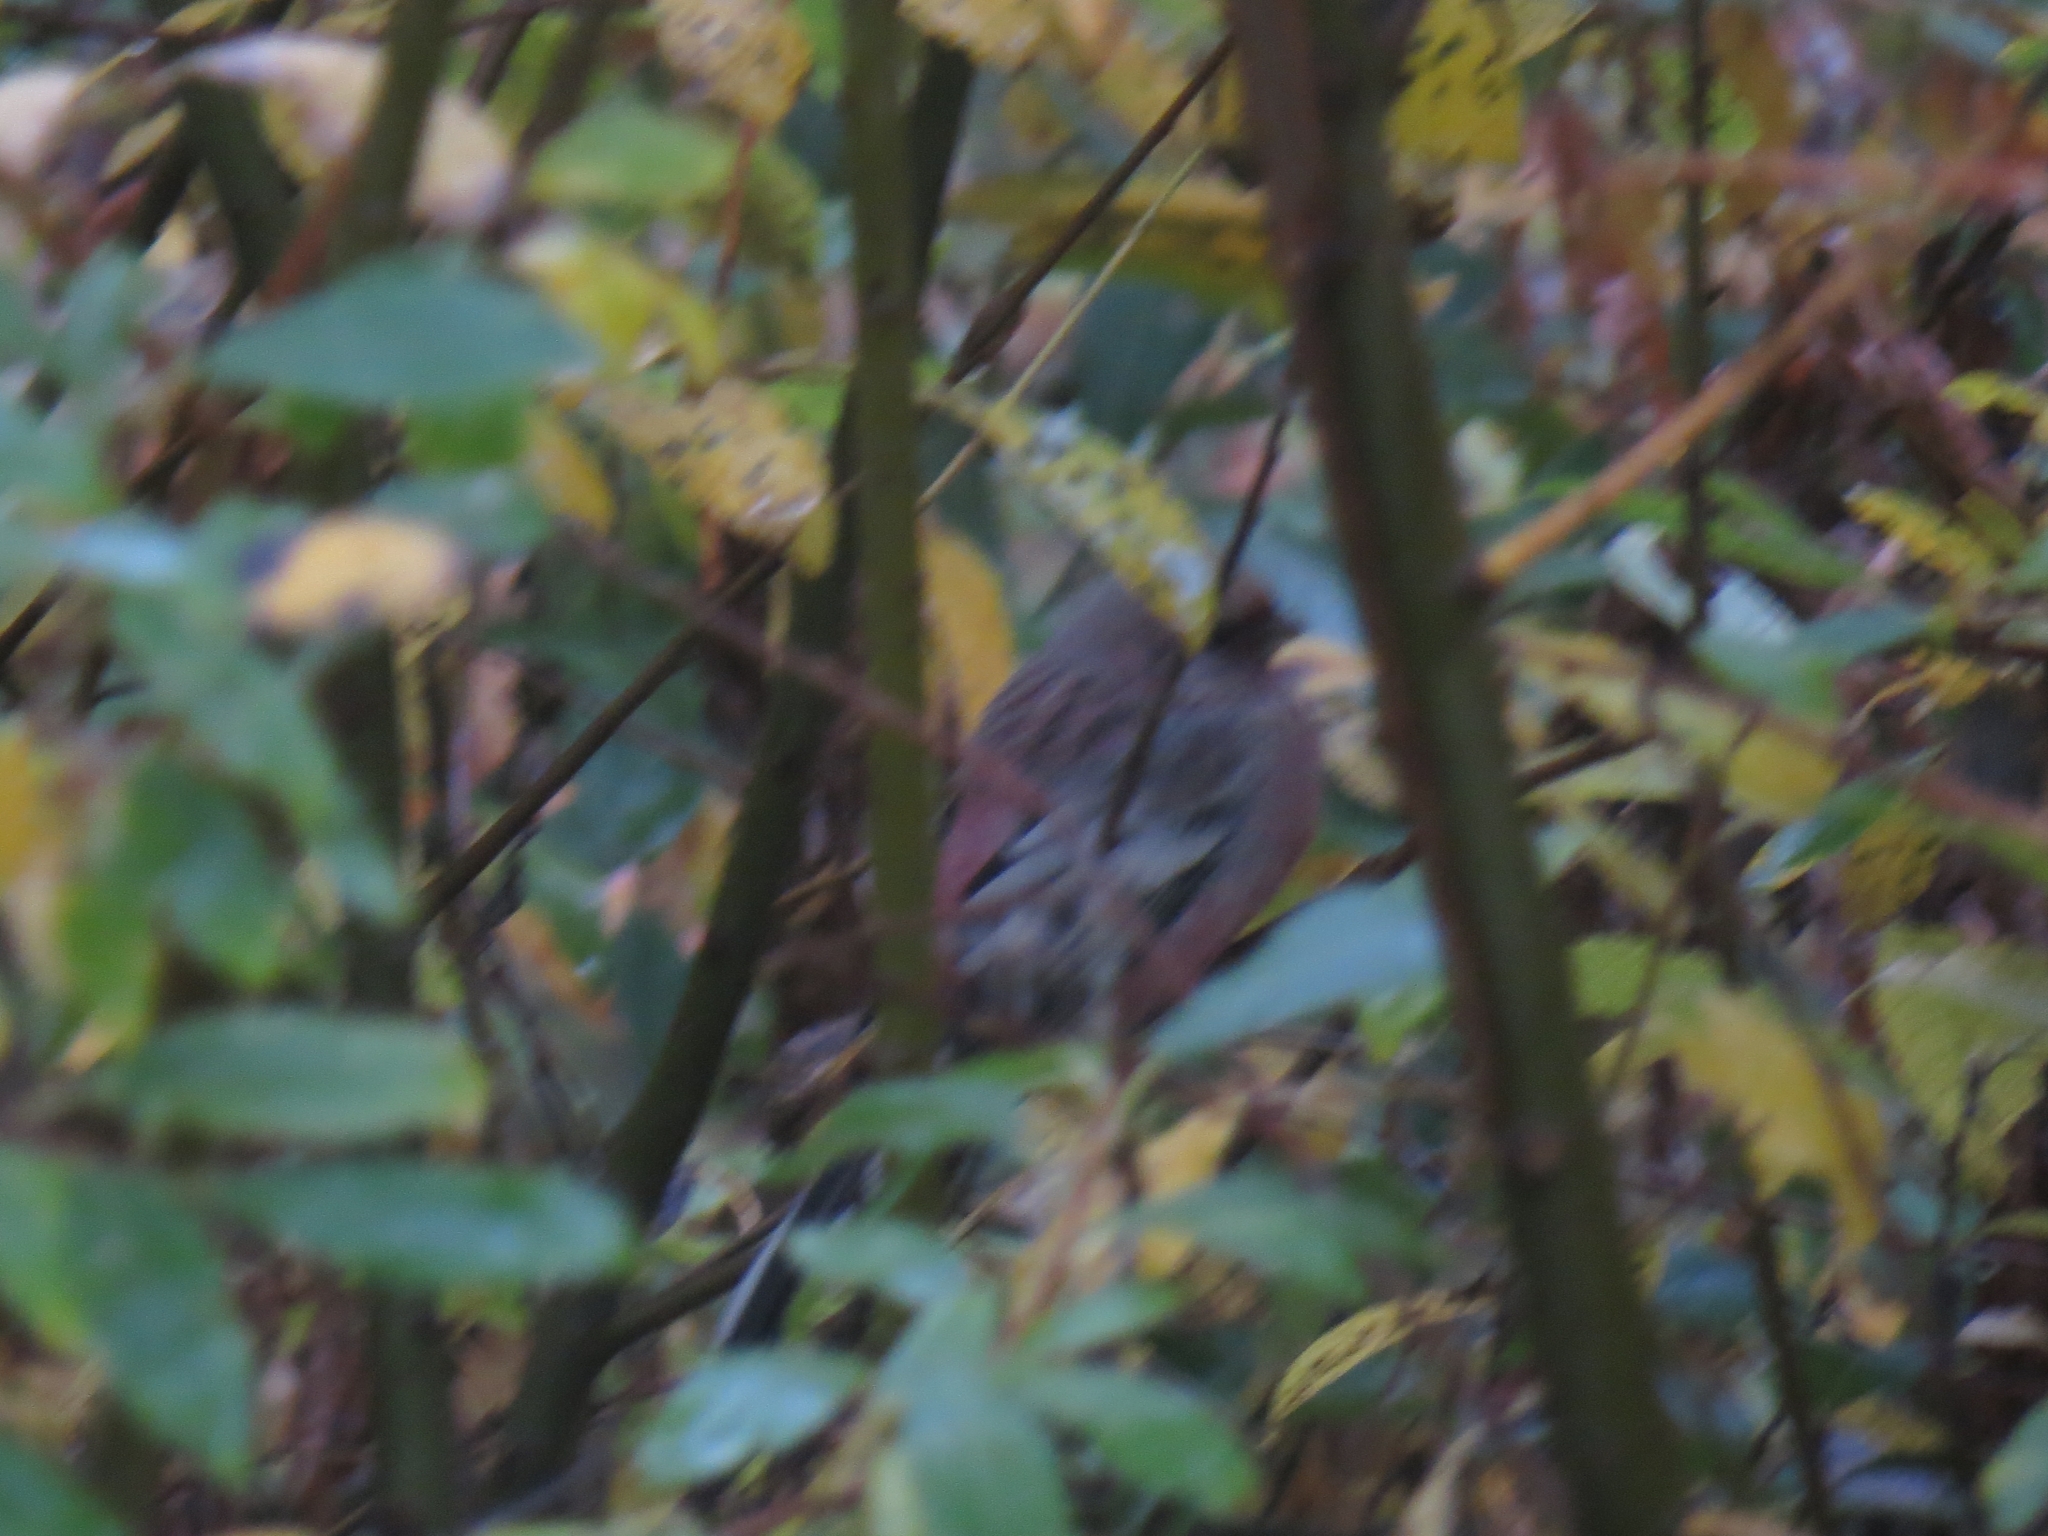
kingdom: Animalia
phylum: Chordata
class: Aves
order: Passeriformes
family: Fringillidae
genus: Carpodacus
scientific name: Carpodacus sibiricus
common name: Long-tailed rosefinch
